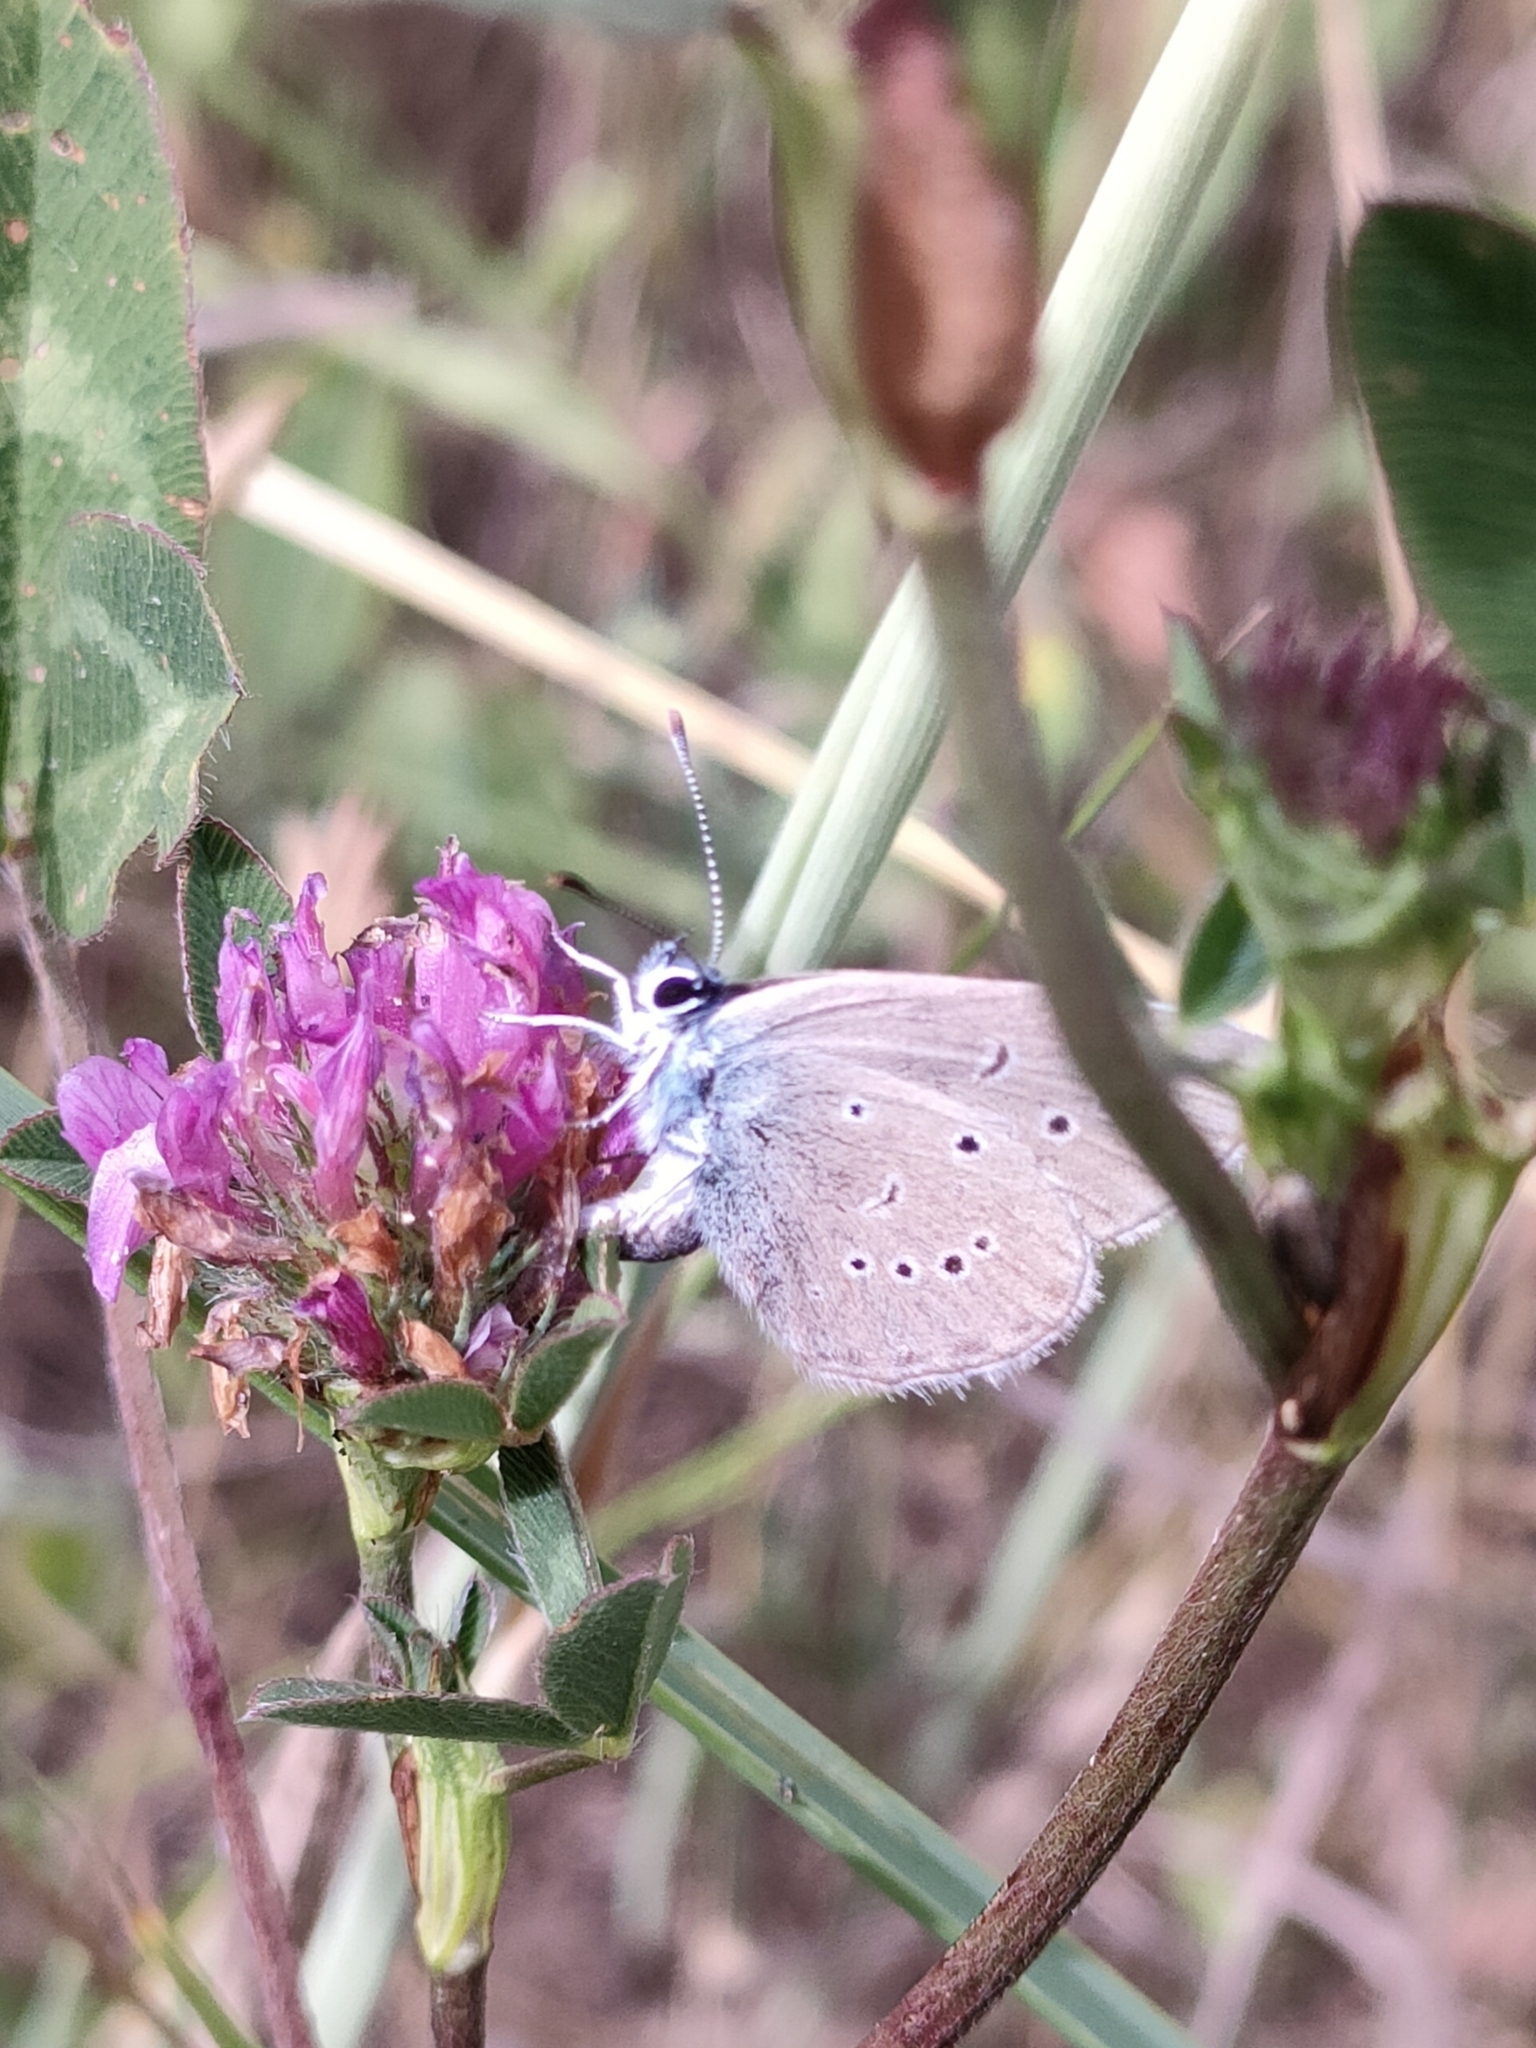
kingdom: Animalia
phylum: Arthropoda
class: Insecta
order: Lepidoptera
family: Lycaenidae
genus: Cyaniris
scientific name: Cyaniris semiargus
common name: Mazarine blue
